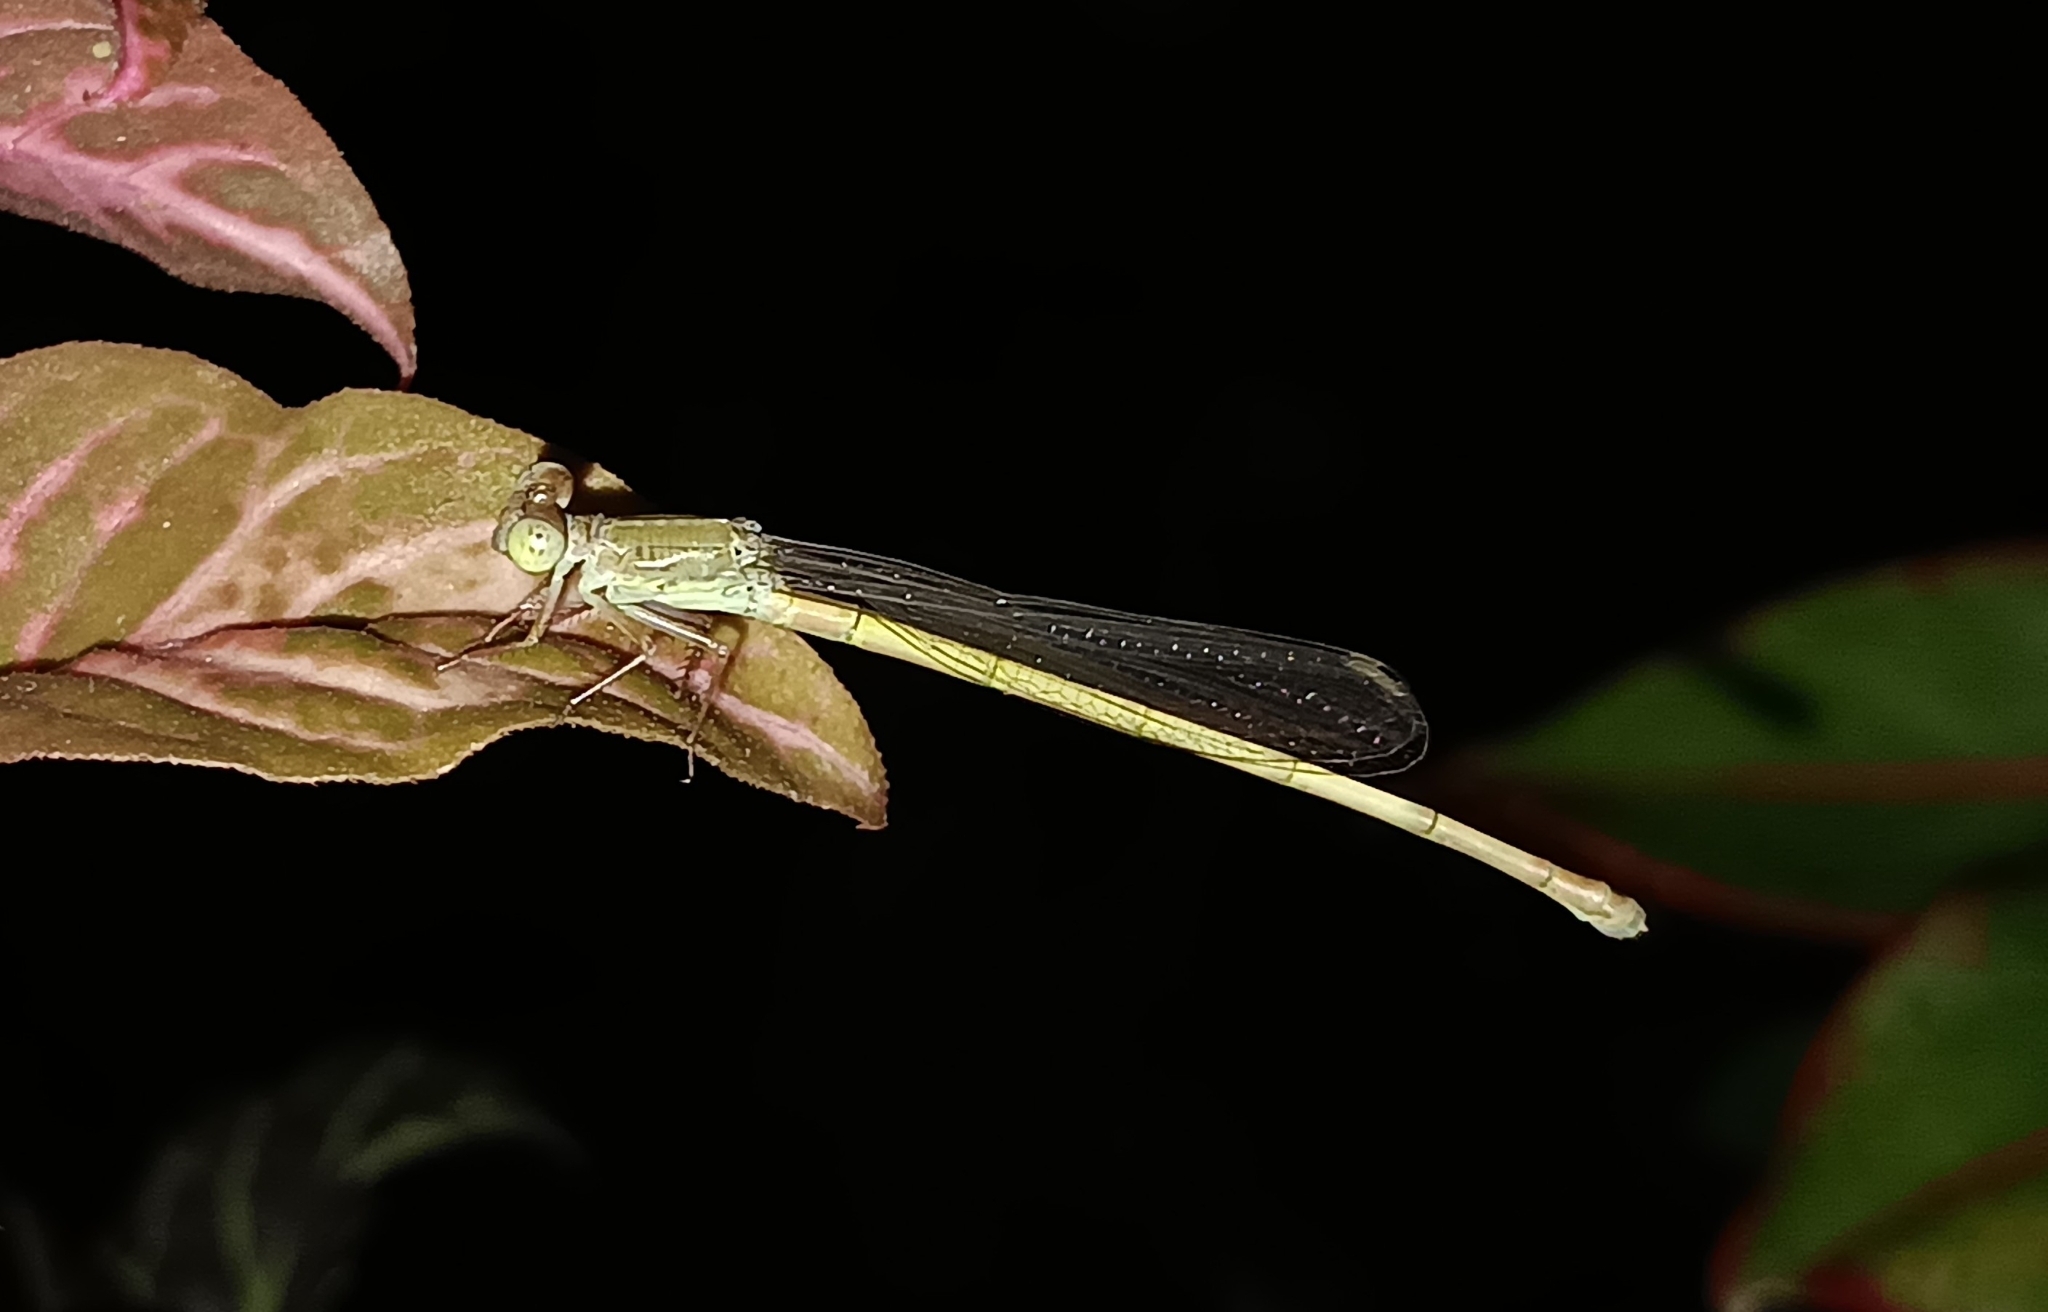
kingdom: Animalia
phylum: Arthropoda
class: Insecta
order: Odonata
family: Coenagrionidae
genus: Ceriagrion
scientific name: Ceriagrion coromandelianum
